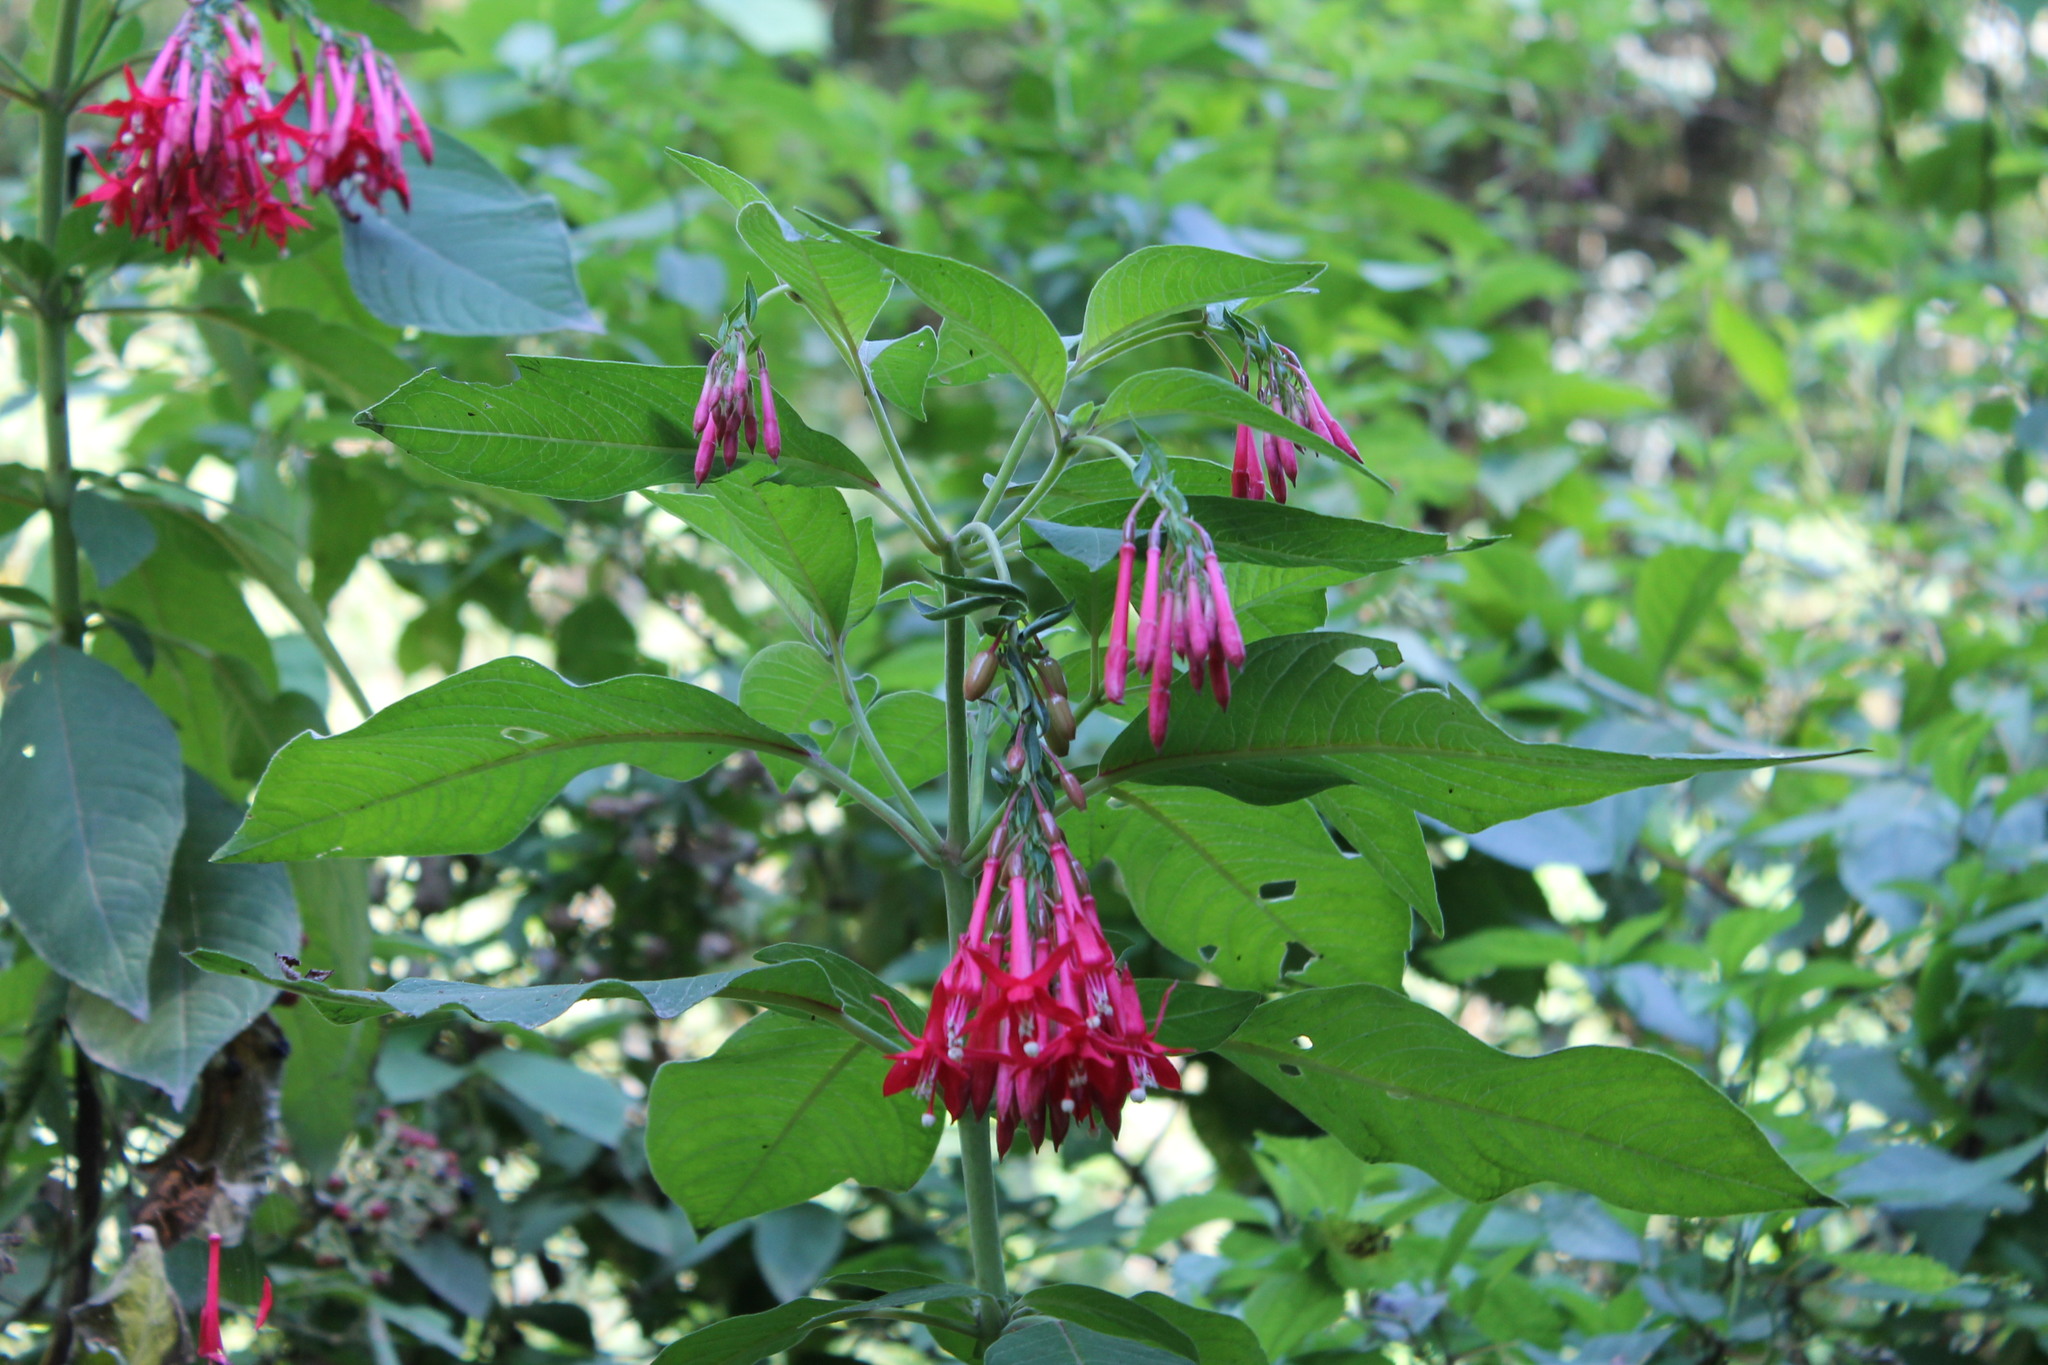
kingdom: Plantae
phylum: Tracheophyta
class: Magnoliopsida
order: Myrtales
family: Onagraceae
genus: Fuchsia
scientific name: Fuchsia boliviana
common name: Bolivian fuchsia
